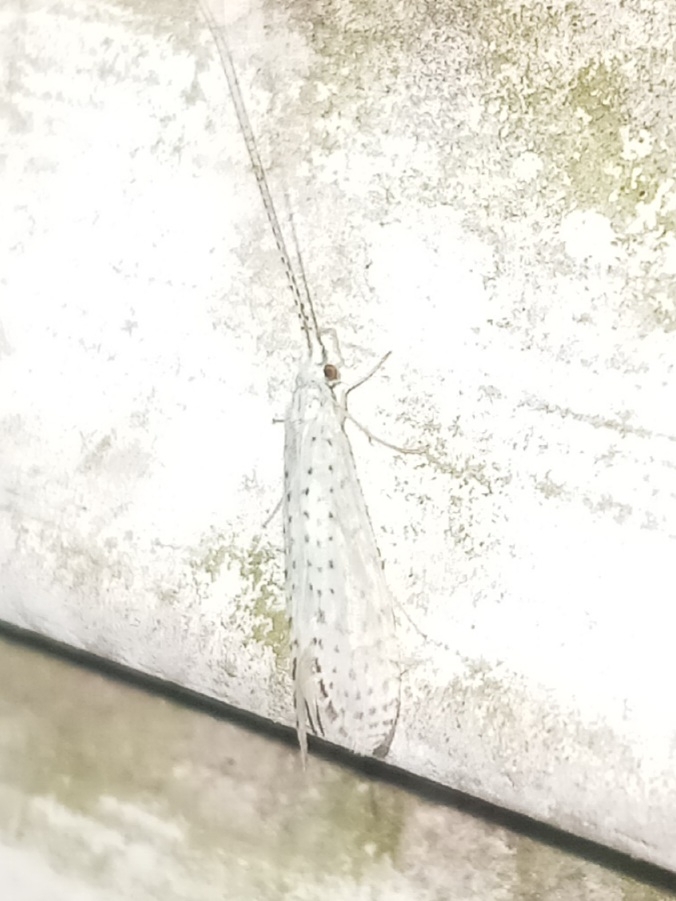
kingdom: Animalia
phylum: Arthropoda
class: Insecta
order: Trichoptera
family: Leptoceridae
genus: Nectopsyche
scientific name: Nectopsyche candida
